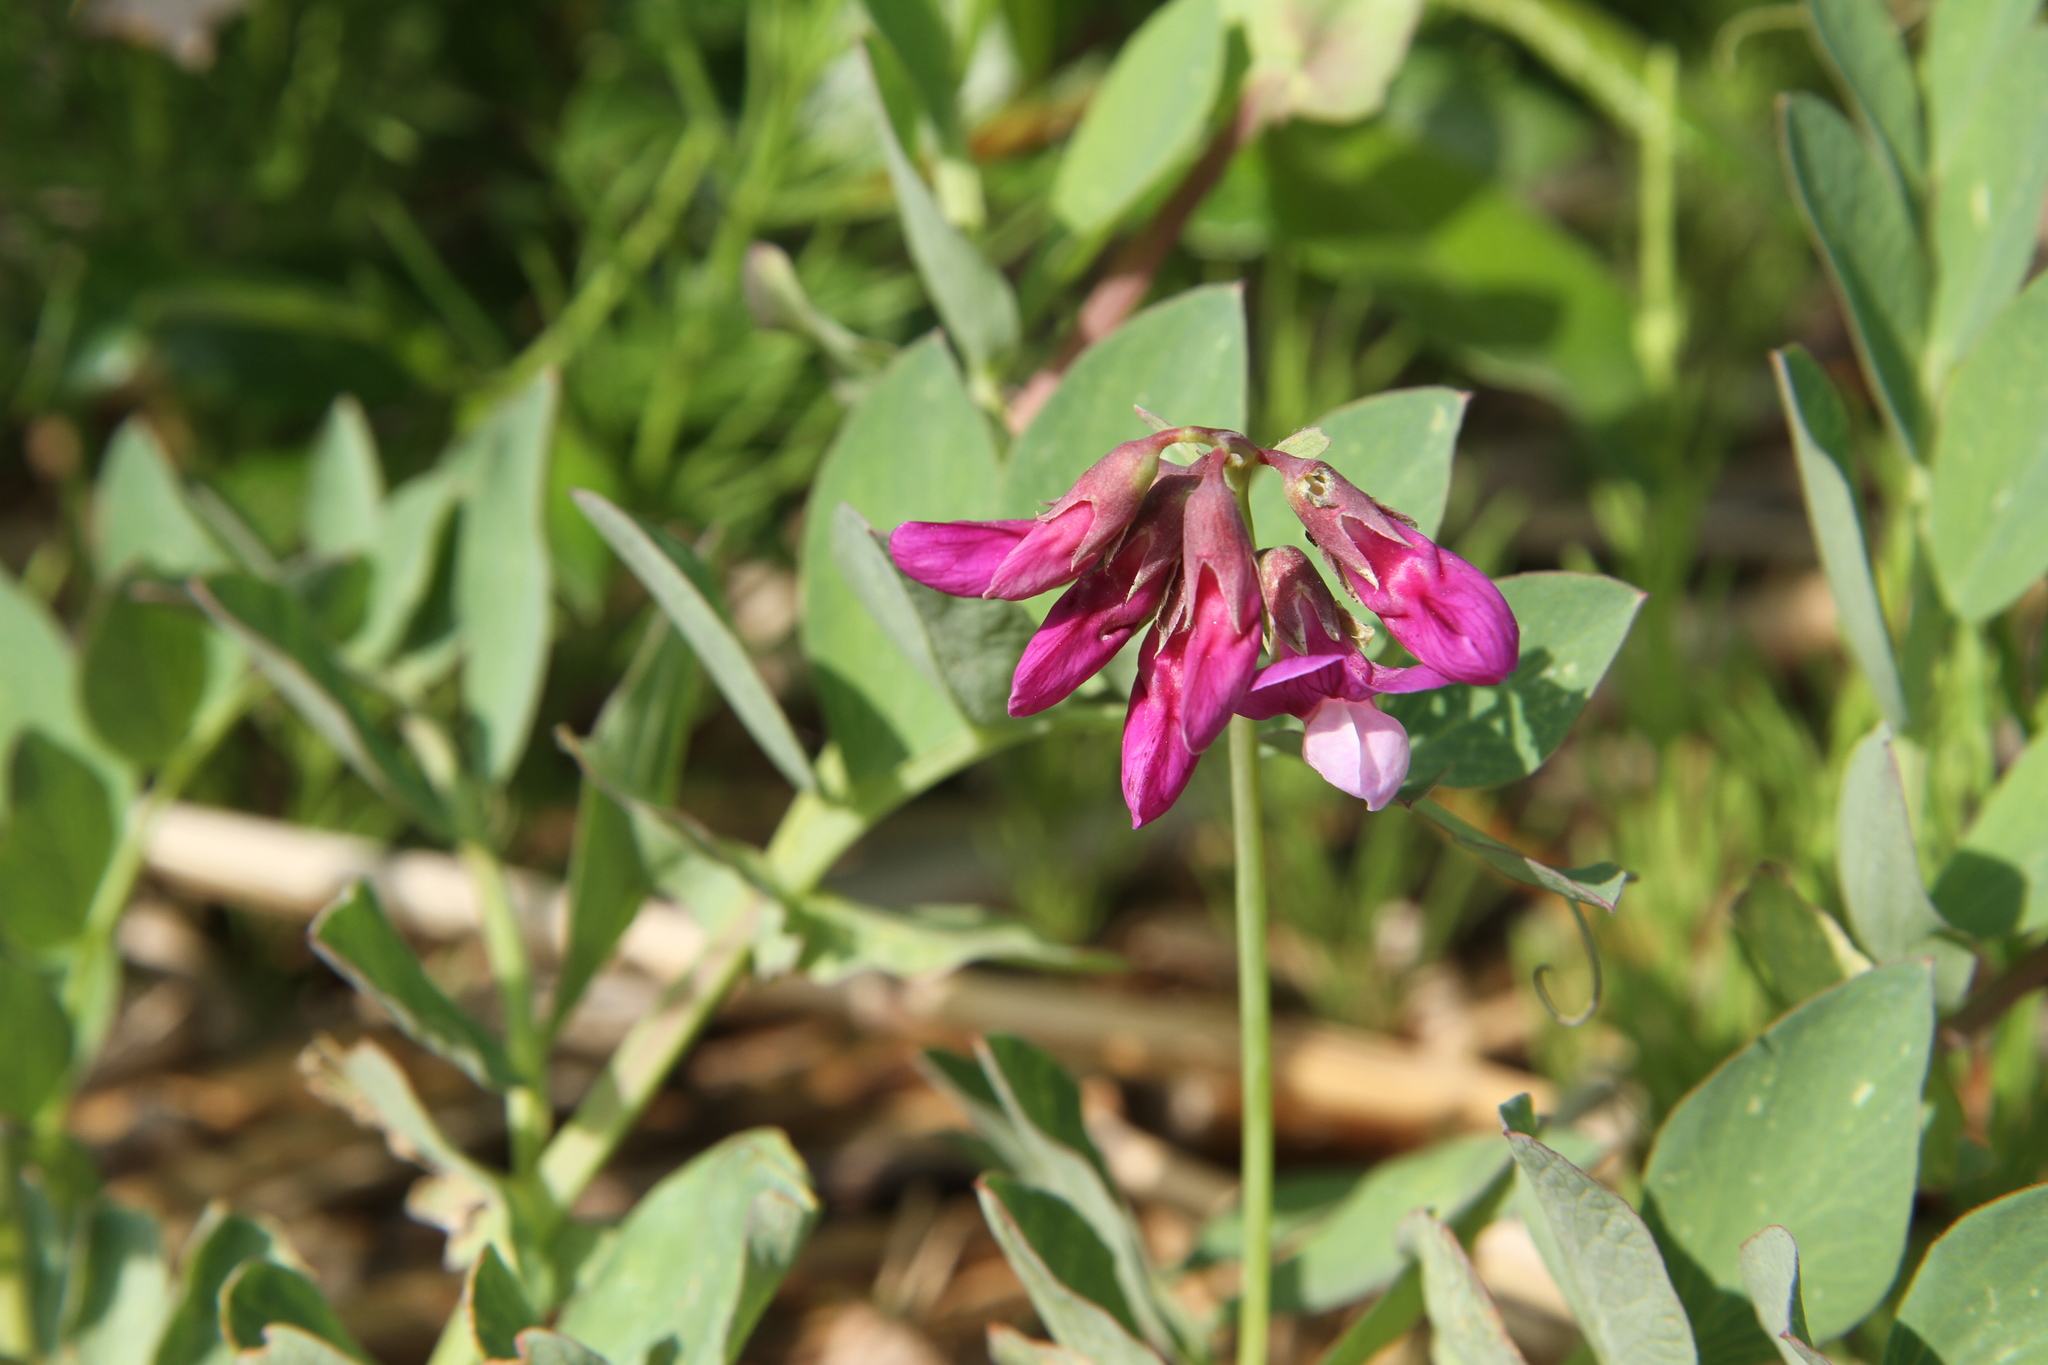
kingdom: Plantae
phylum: Tracheophyta
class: Magnoliopsida
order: Fabales
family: Fabaceae
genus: Lathyrus
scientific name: Lathyrus japonicus
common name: Sea pea
